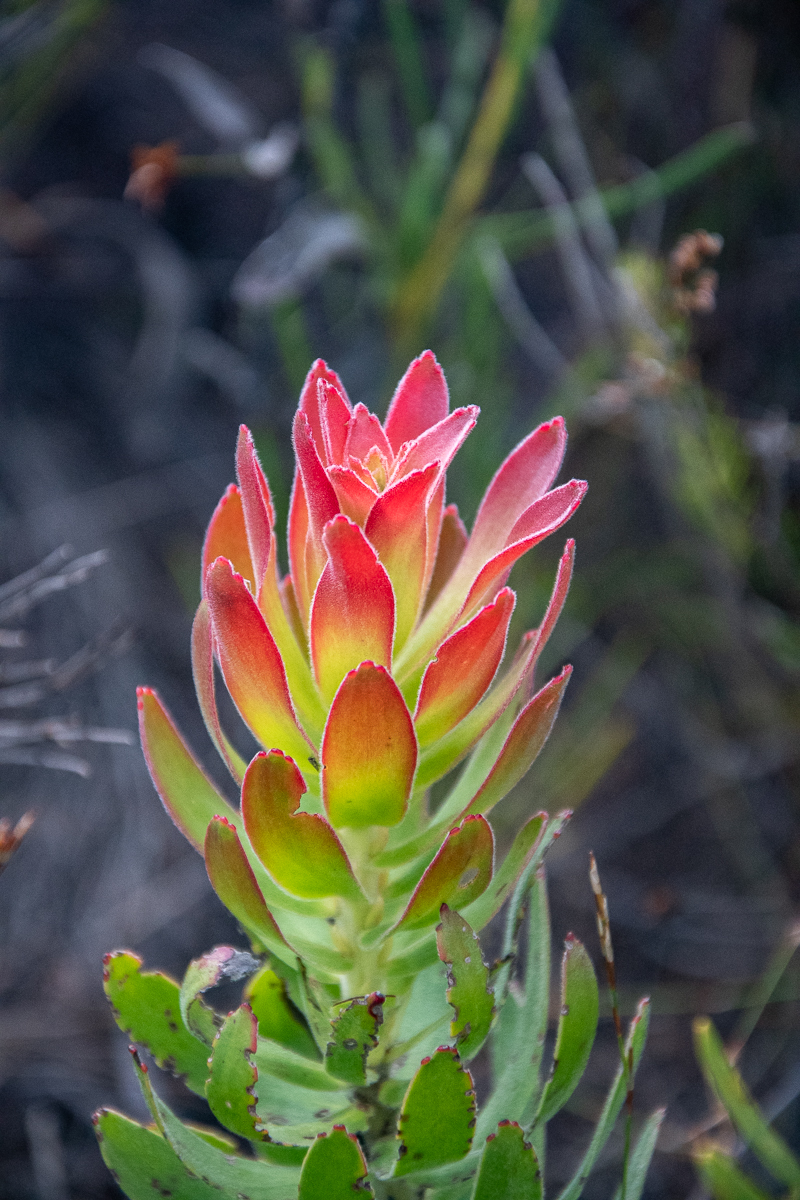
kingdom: Plantae
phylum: Tracheophyta
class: Magnoliopsida
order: Proteales
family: Proteaceae
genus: Mimetes
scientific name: Mimetes cucullatus
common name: Common pagoda
